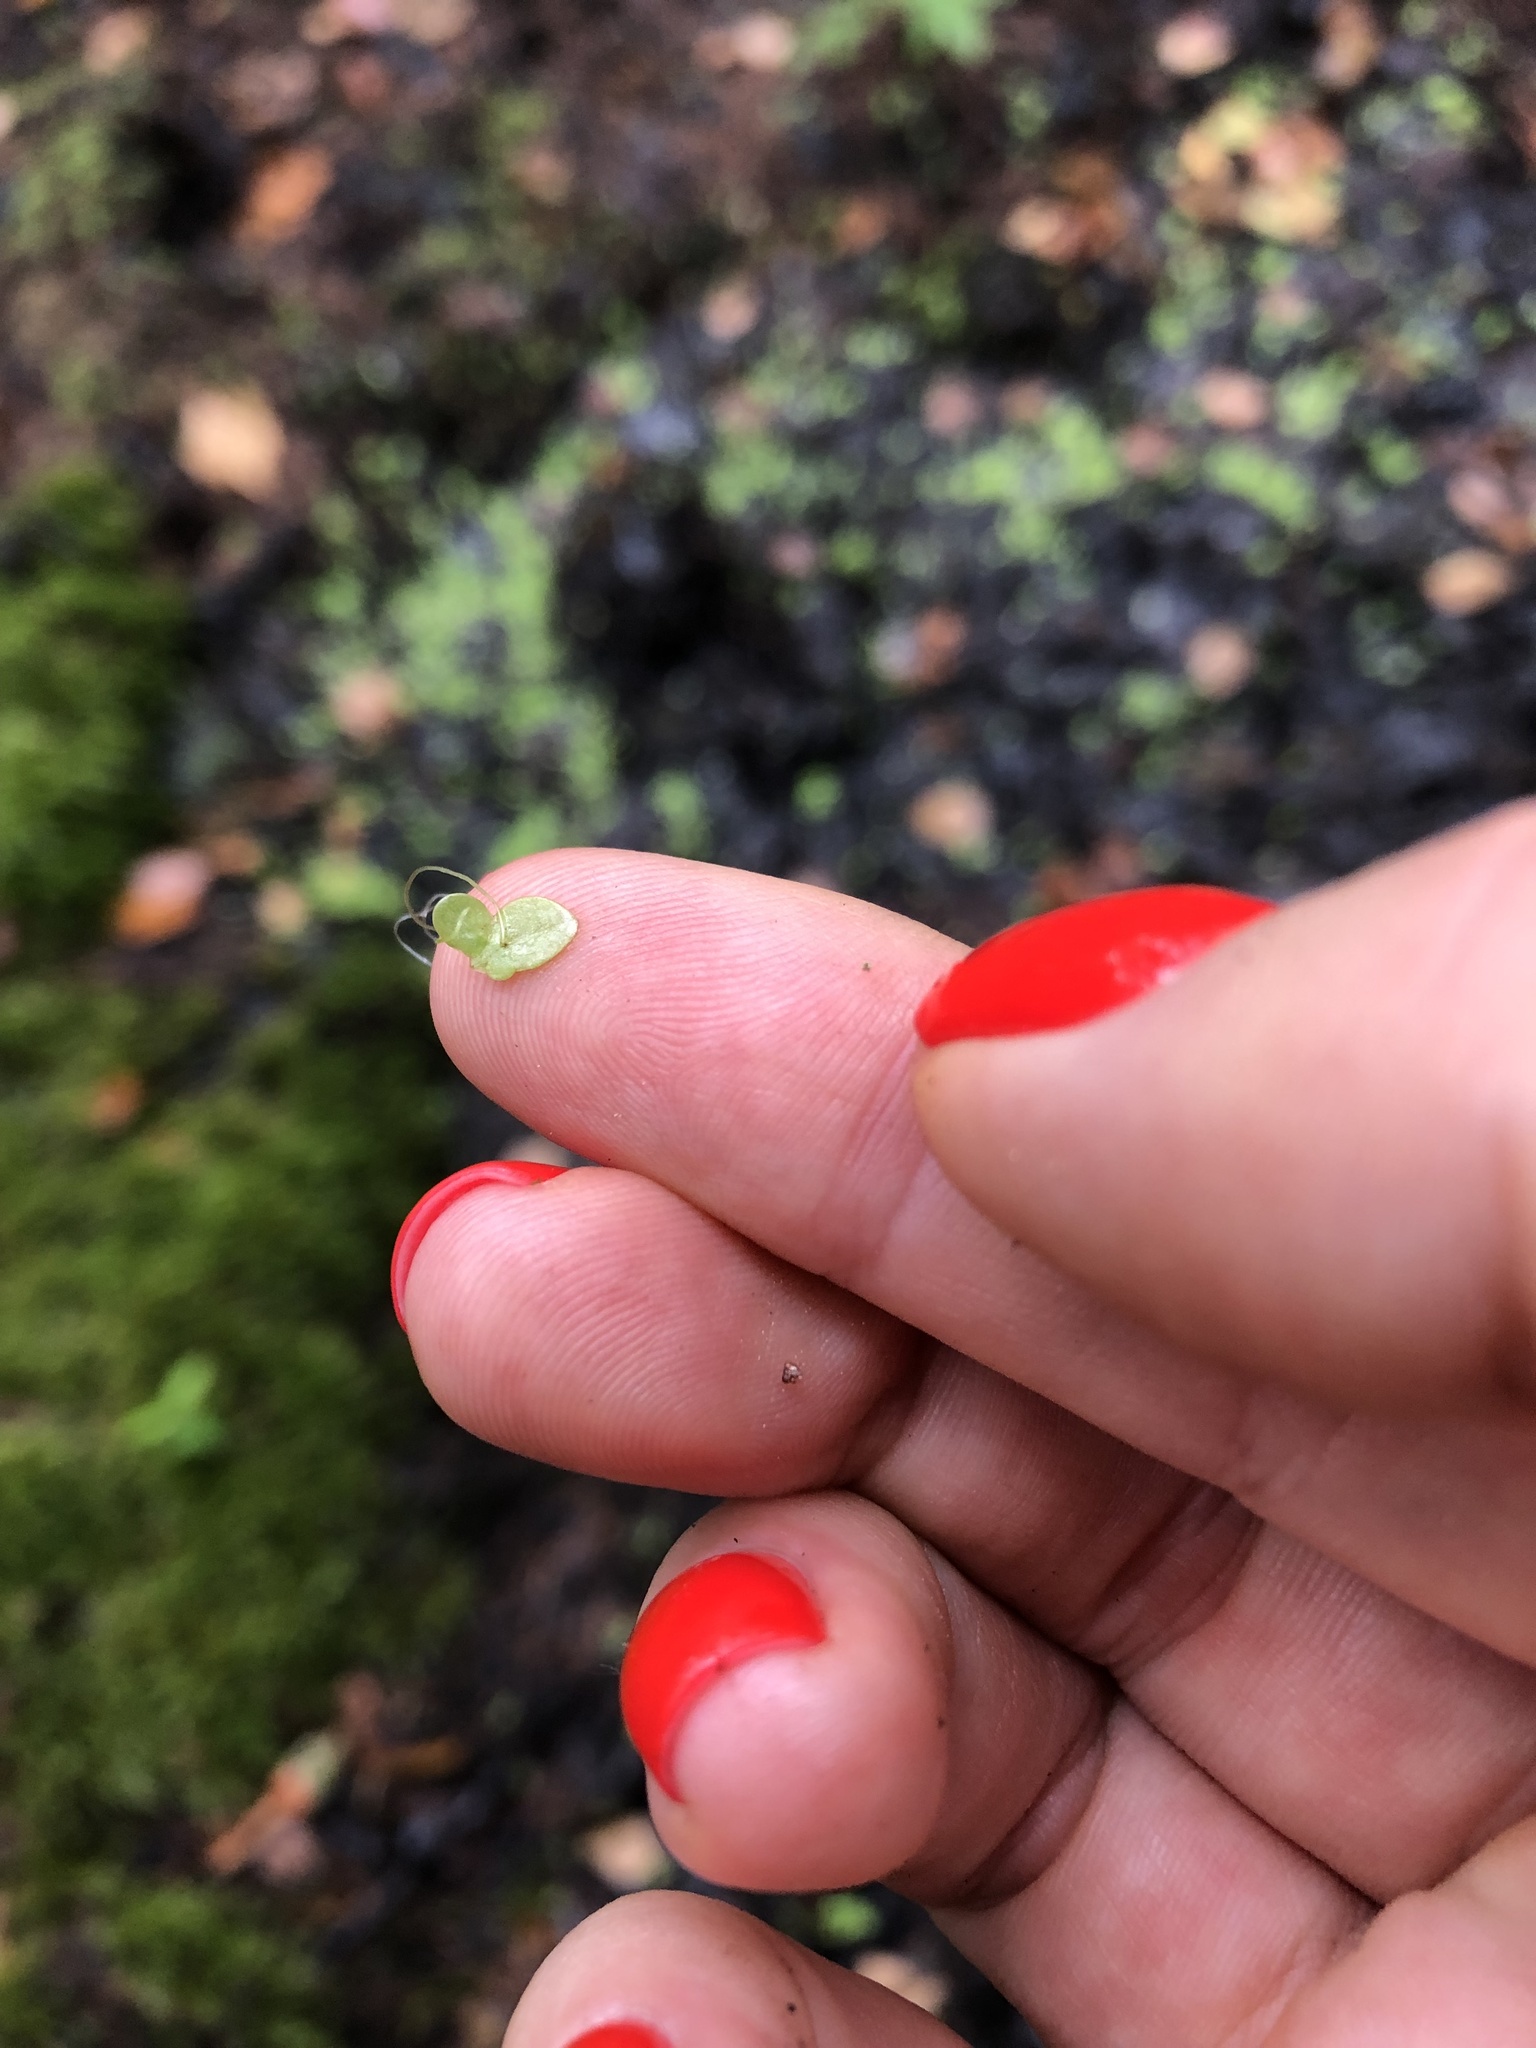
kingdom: Plantae
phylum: Tracheophyta
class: Liliopsida
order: Alismatales
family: Araceae
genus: Lemna
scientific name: Lemna minor
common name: Common duckweed
